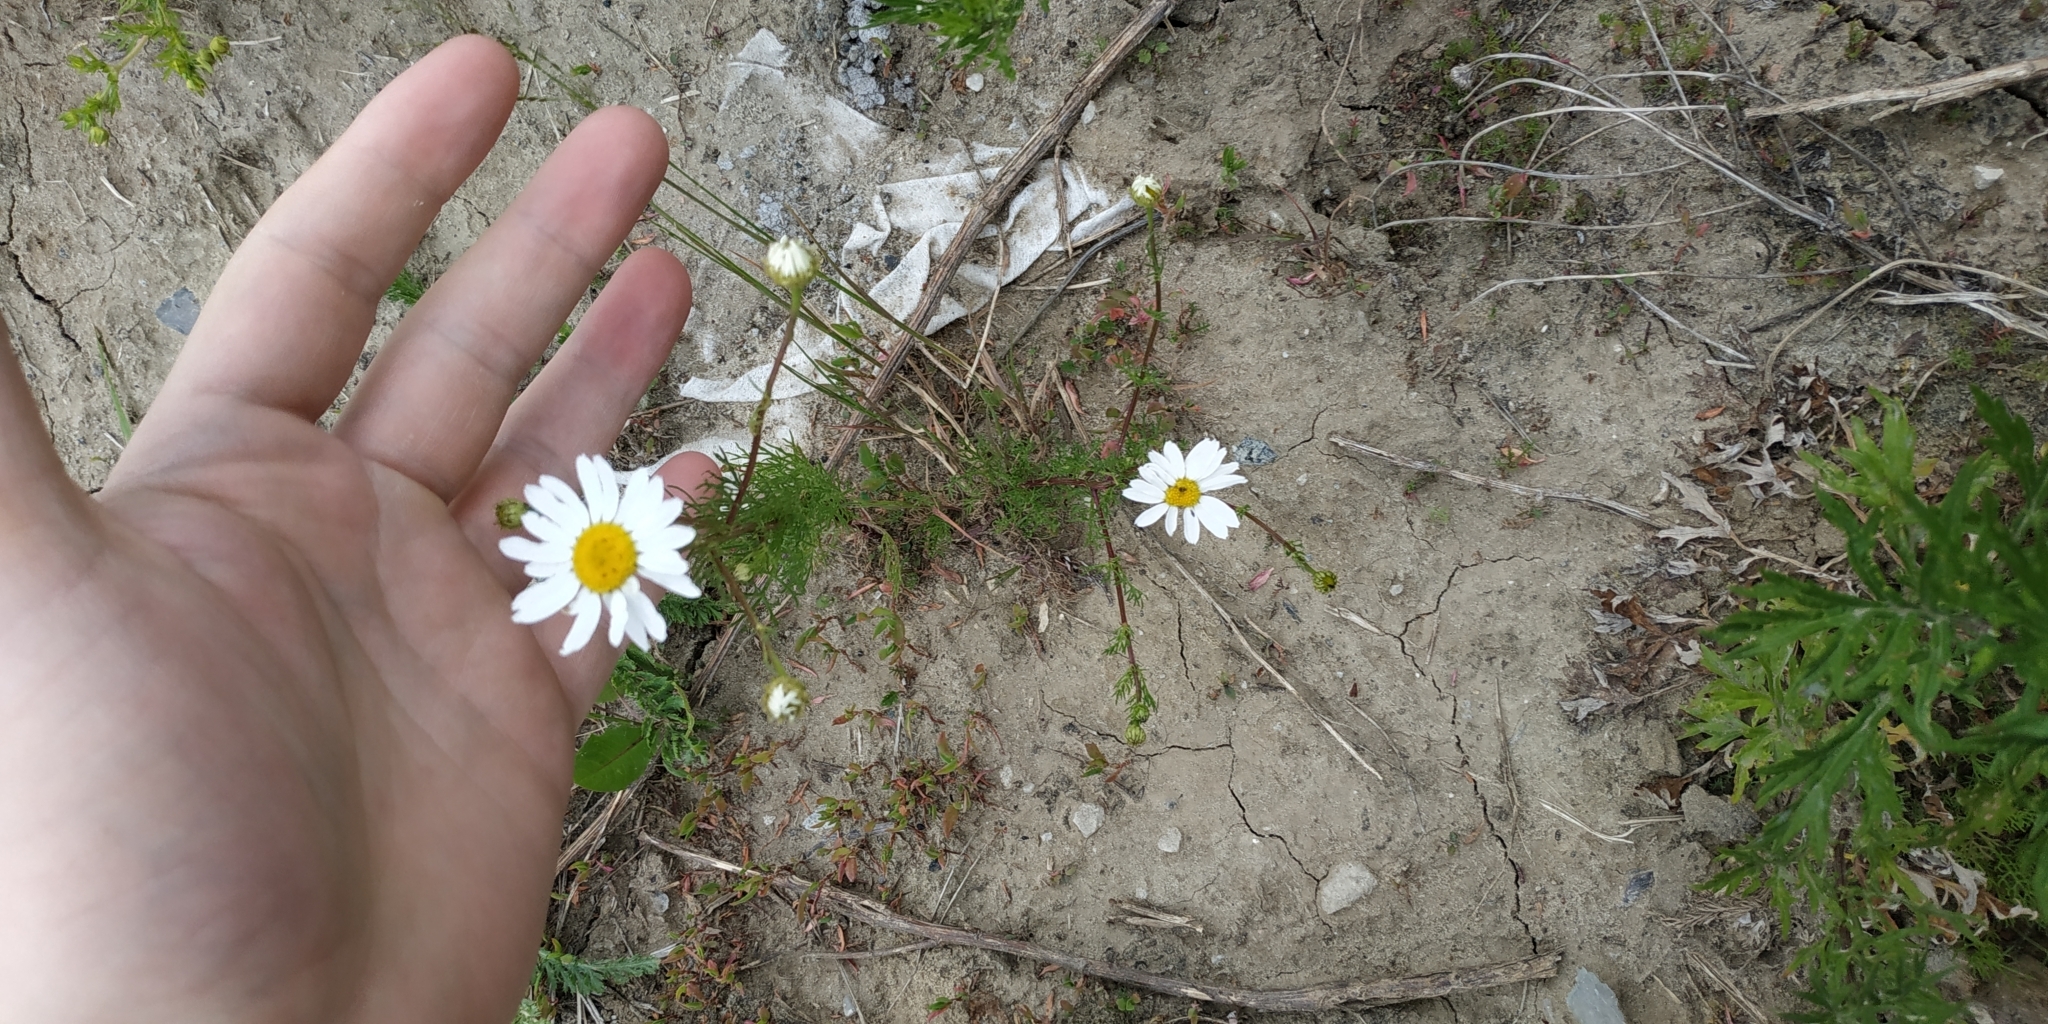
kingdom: Plantae
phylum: Tracheophyta
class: Magnoliopsida
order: Asterales
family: Asteraceae
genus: Tripleurospermum
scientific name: Tripleurospermum inodorum
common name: Scentless mayweed
